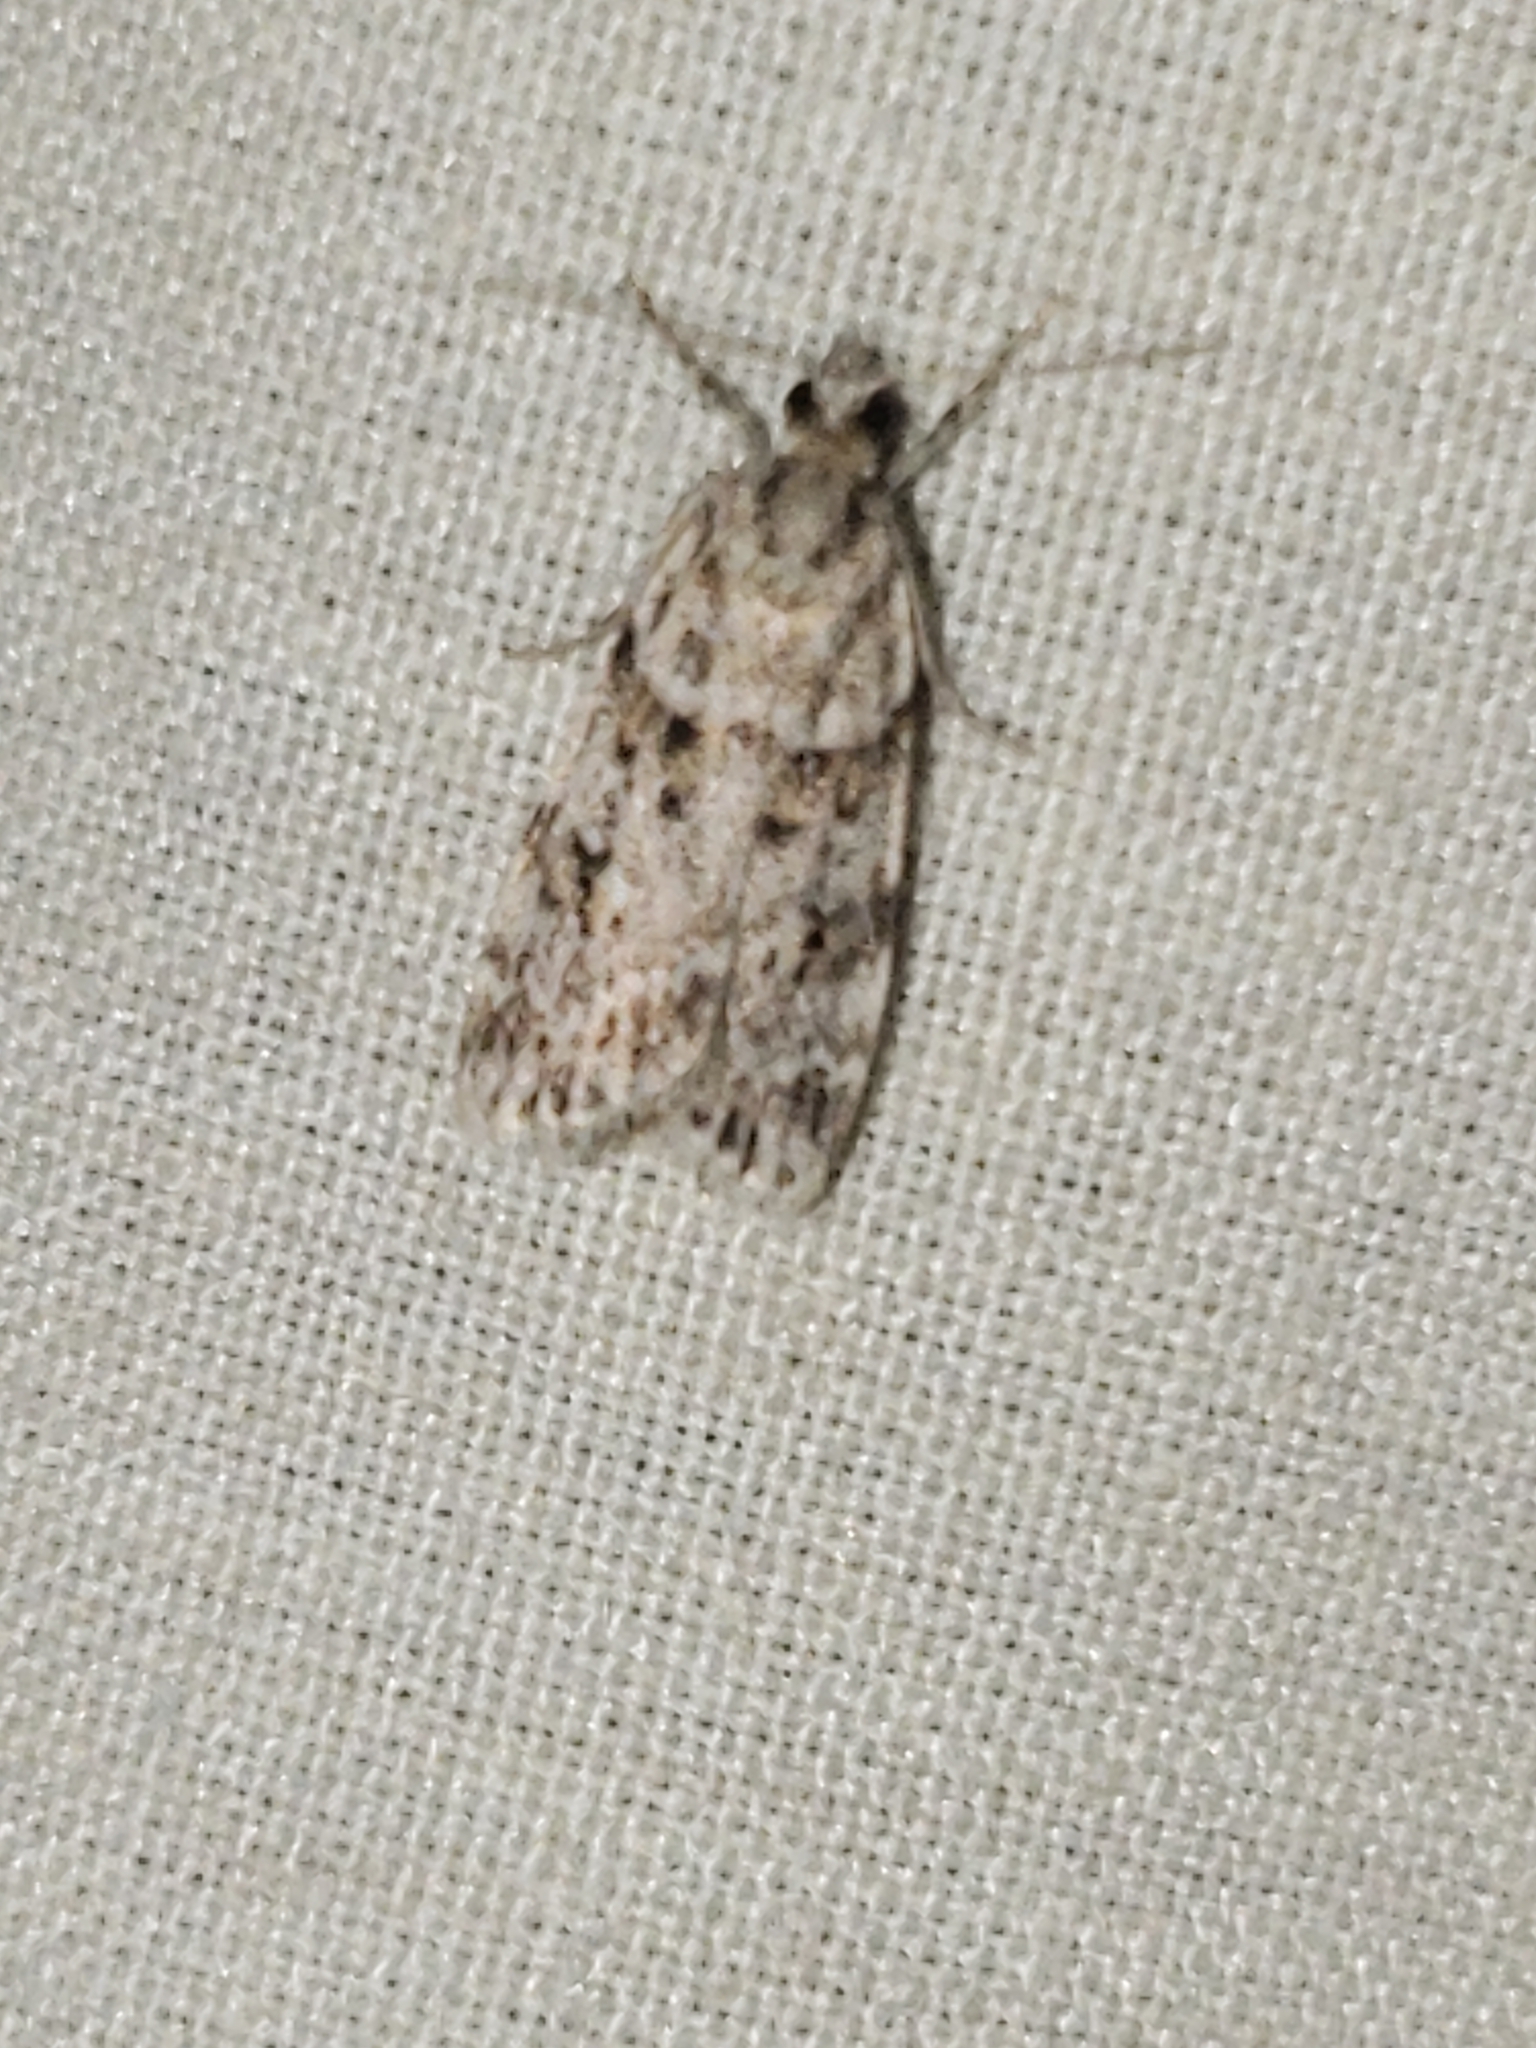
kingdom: Animalia
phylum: Arthropoda
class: Insecta
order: Lepidoptera
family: Crambidae
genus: Scoparia
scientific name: Scoparia biplagialis
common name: Double-striped scoparia moth
